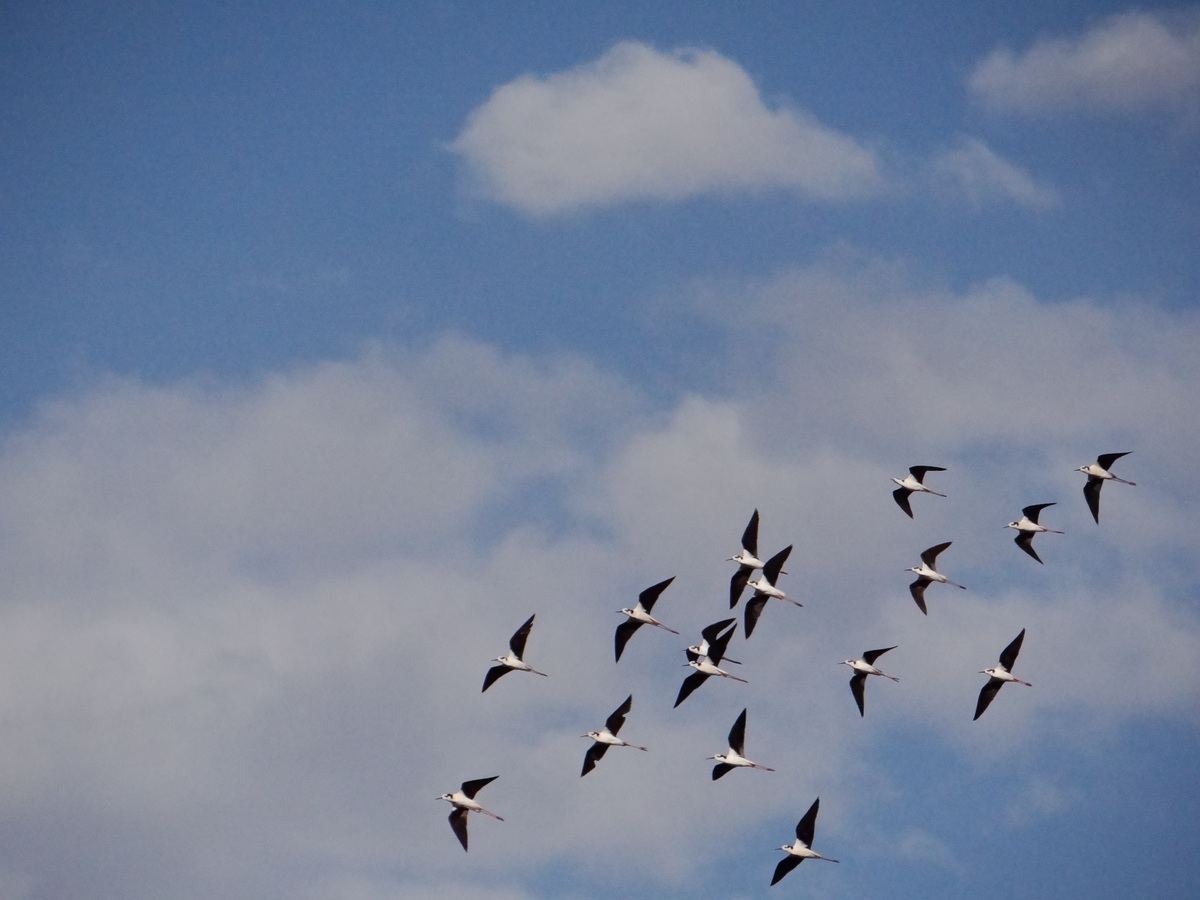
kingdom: Animalia
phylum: Chordata
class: Aves
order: Charadriiformes
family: Recurvirostridae
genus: Himantopus
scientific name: Himantopus mexicanus
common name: Black-necked stilt
